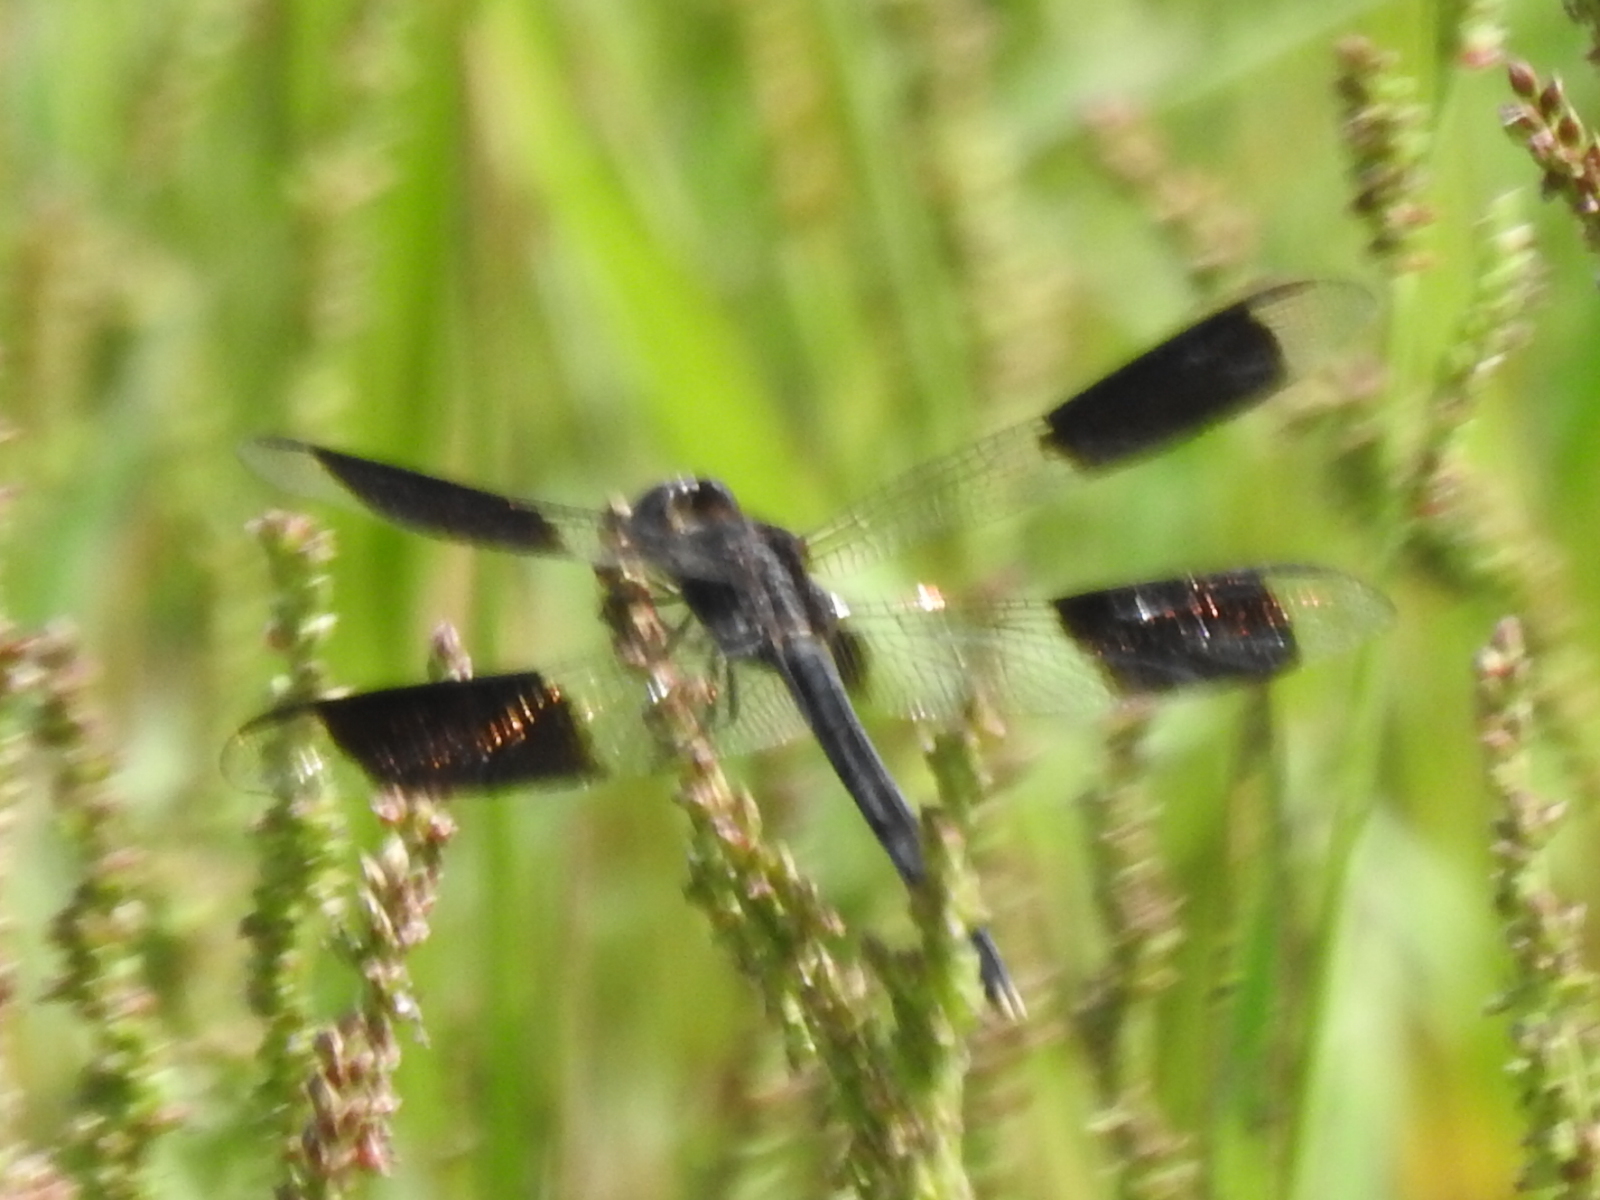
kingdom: Animalia
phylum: Arthropoda
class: Insecta
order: Odonata
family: Libellulidae
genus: Erythrodiplax
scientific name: Erythrodiplax umbrata
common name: Band-winged dragonlet
